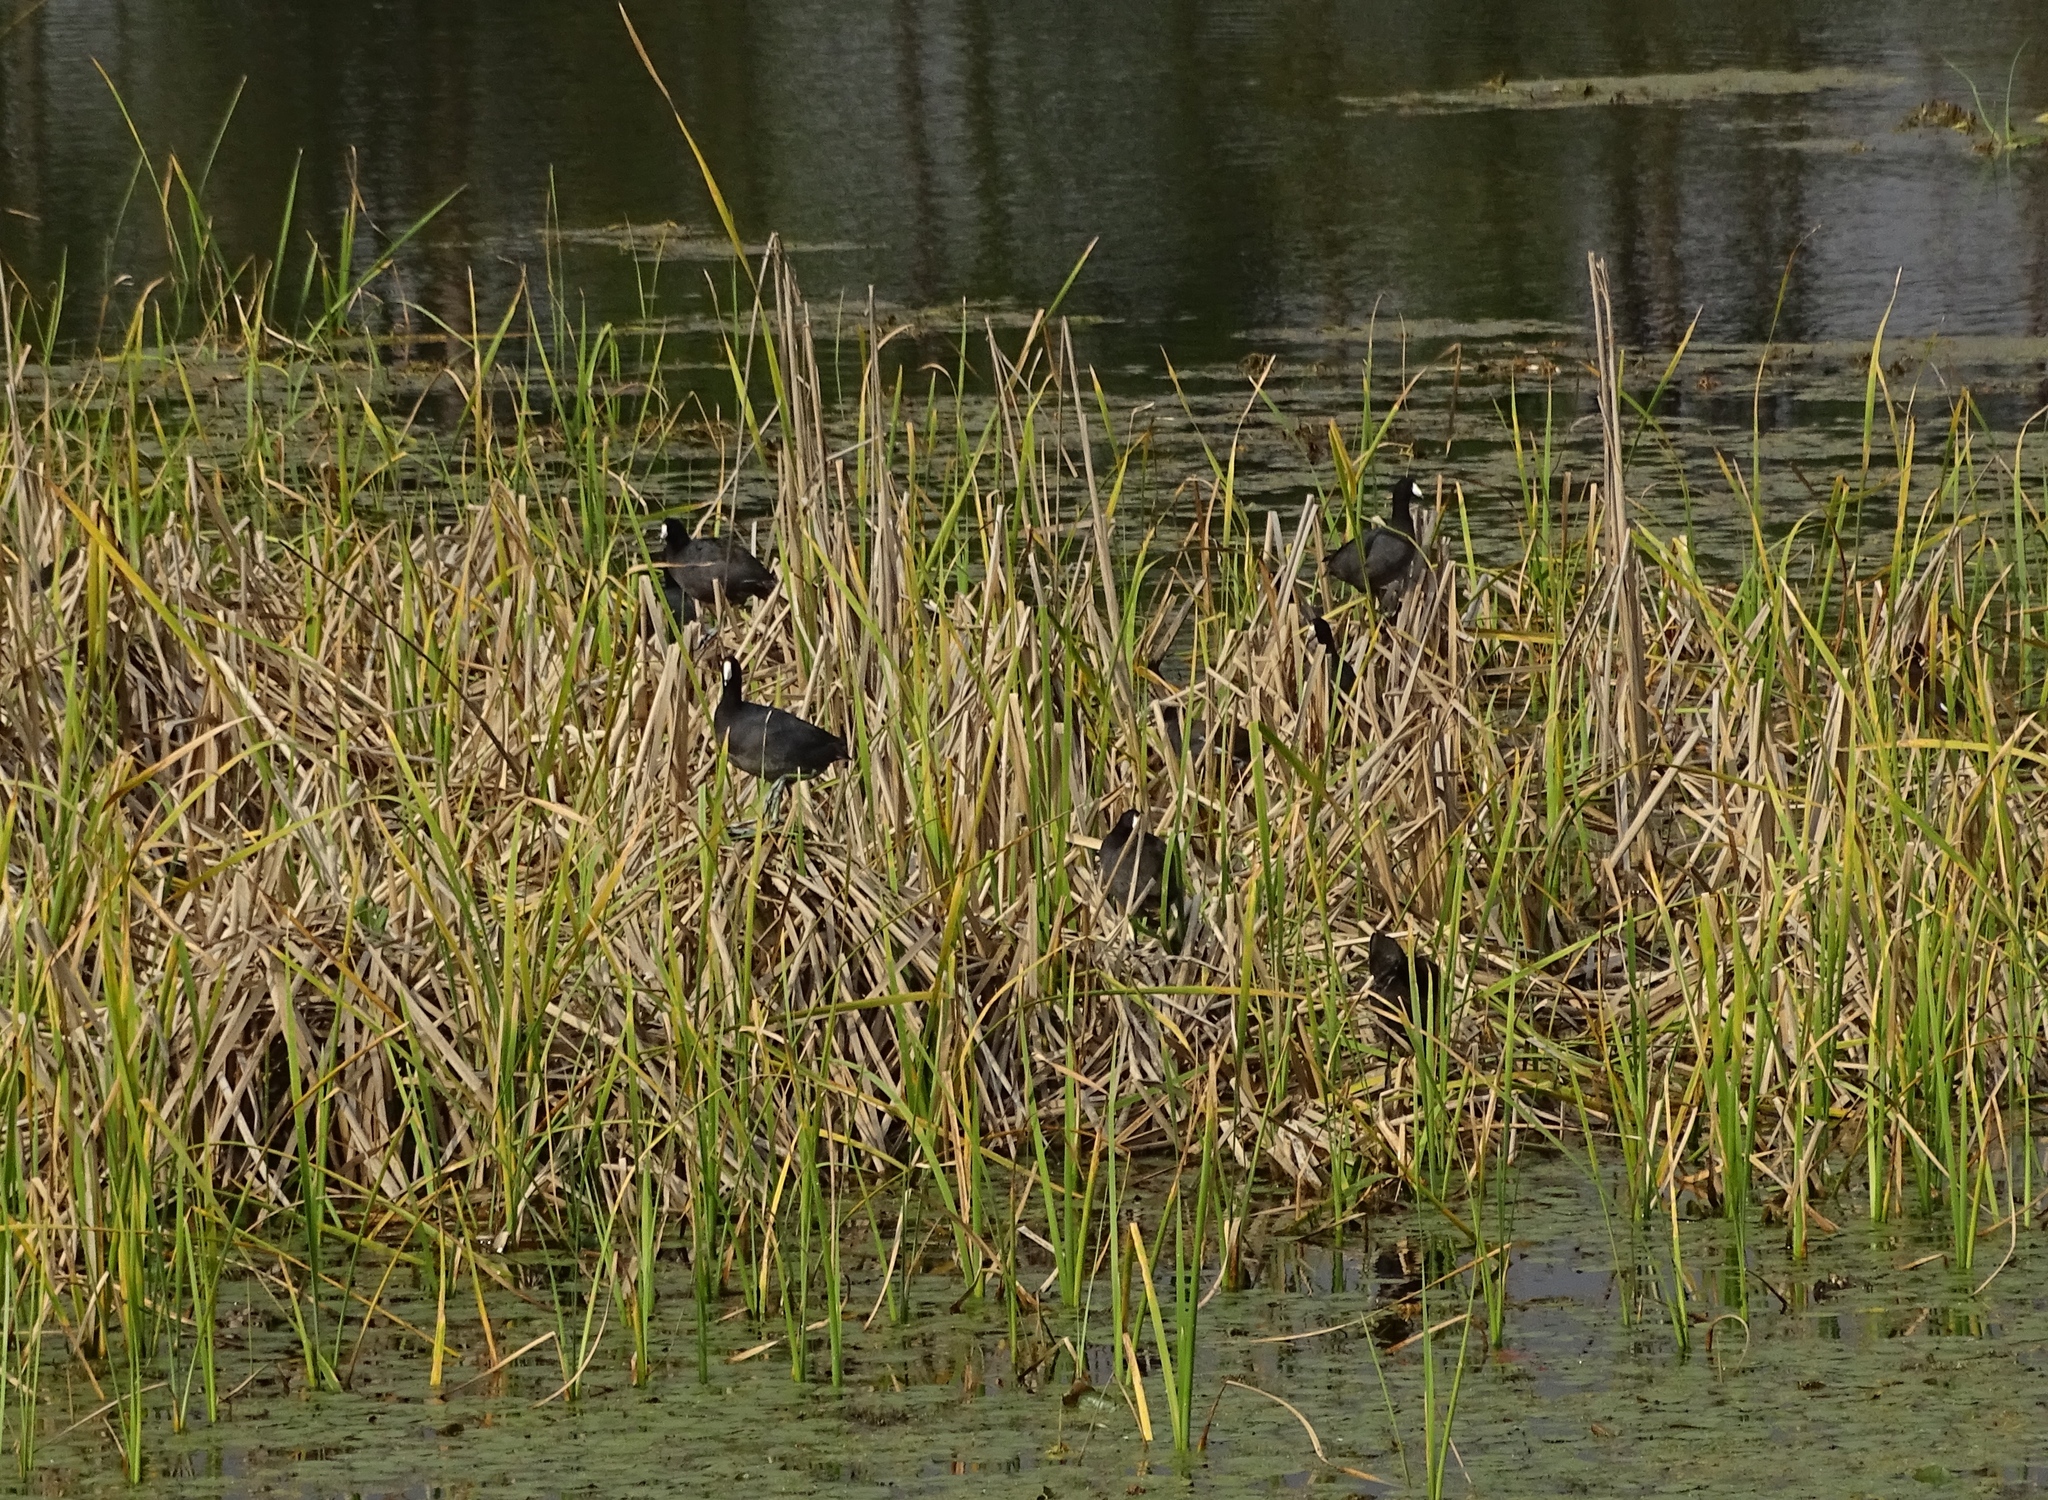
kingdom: Animalia
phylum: Chordata
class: Aves
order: Gruiformes
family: Rallidae
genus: Fulica
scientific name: Fulica americana
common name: American coot
